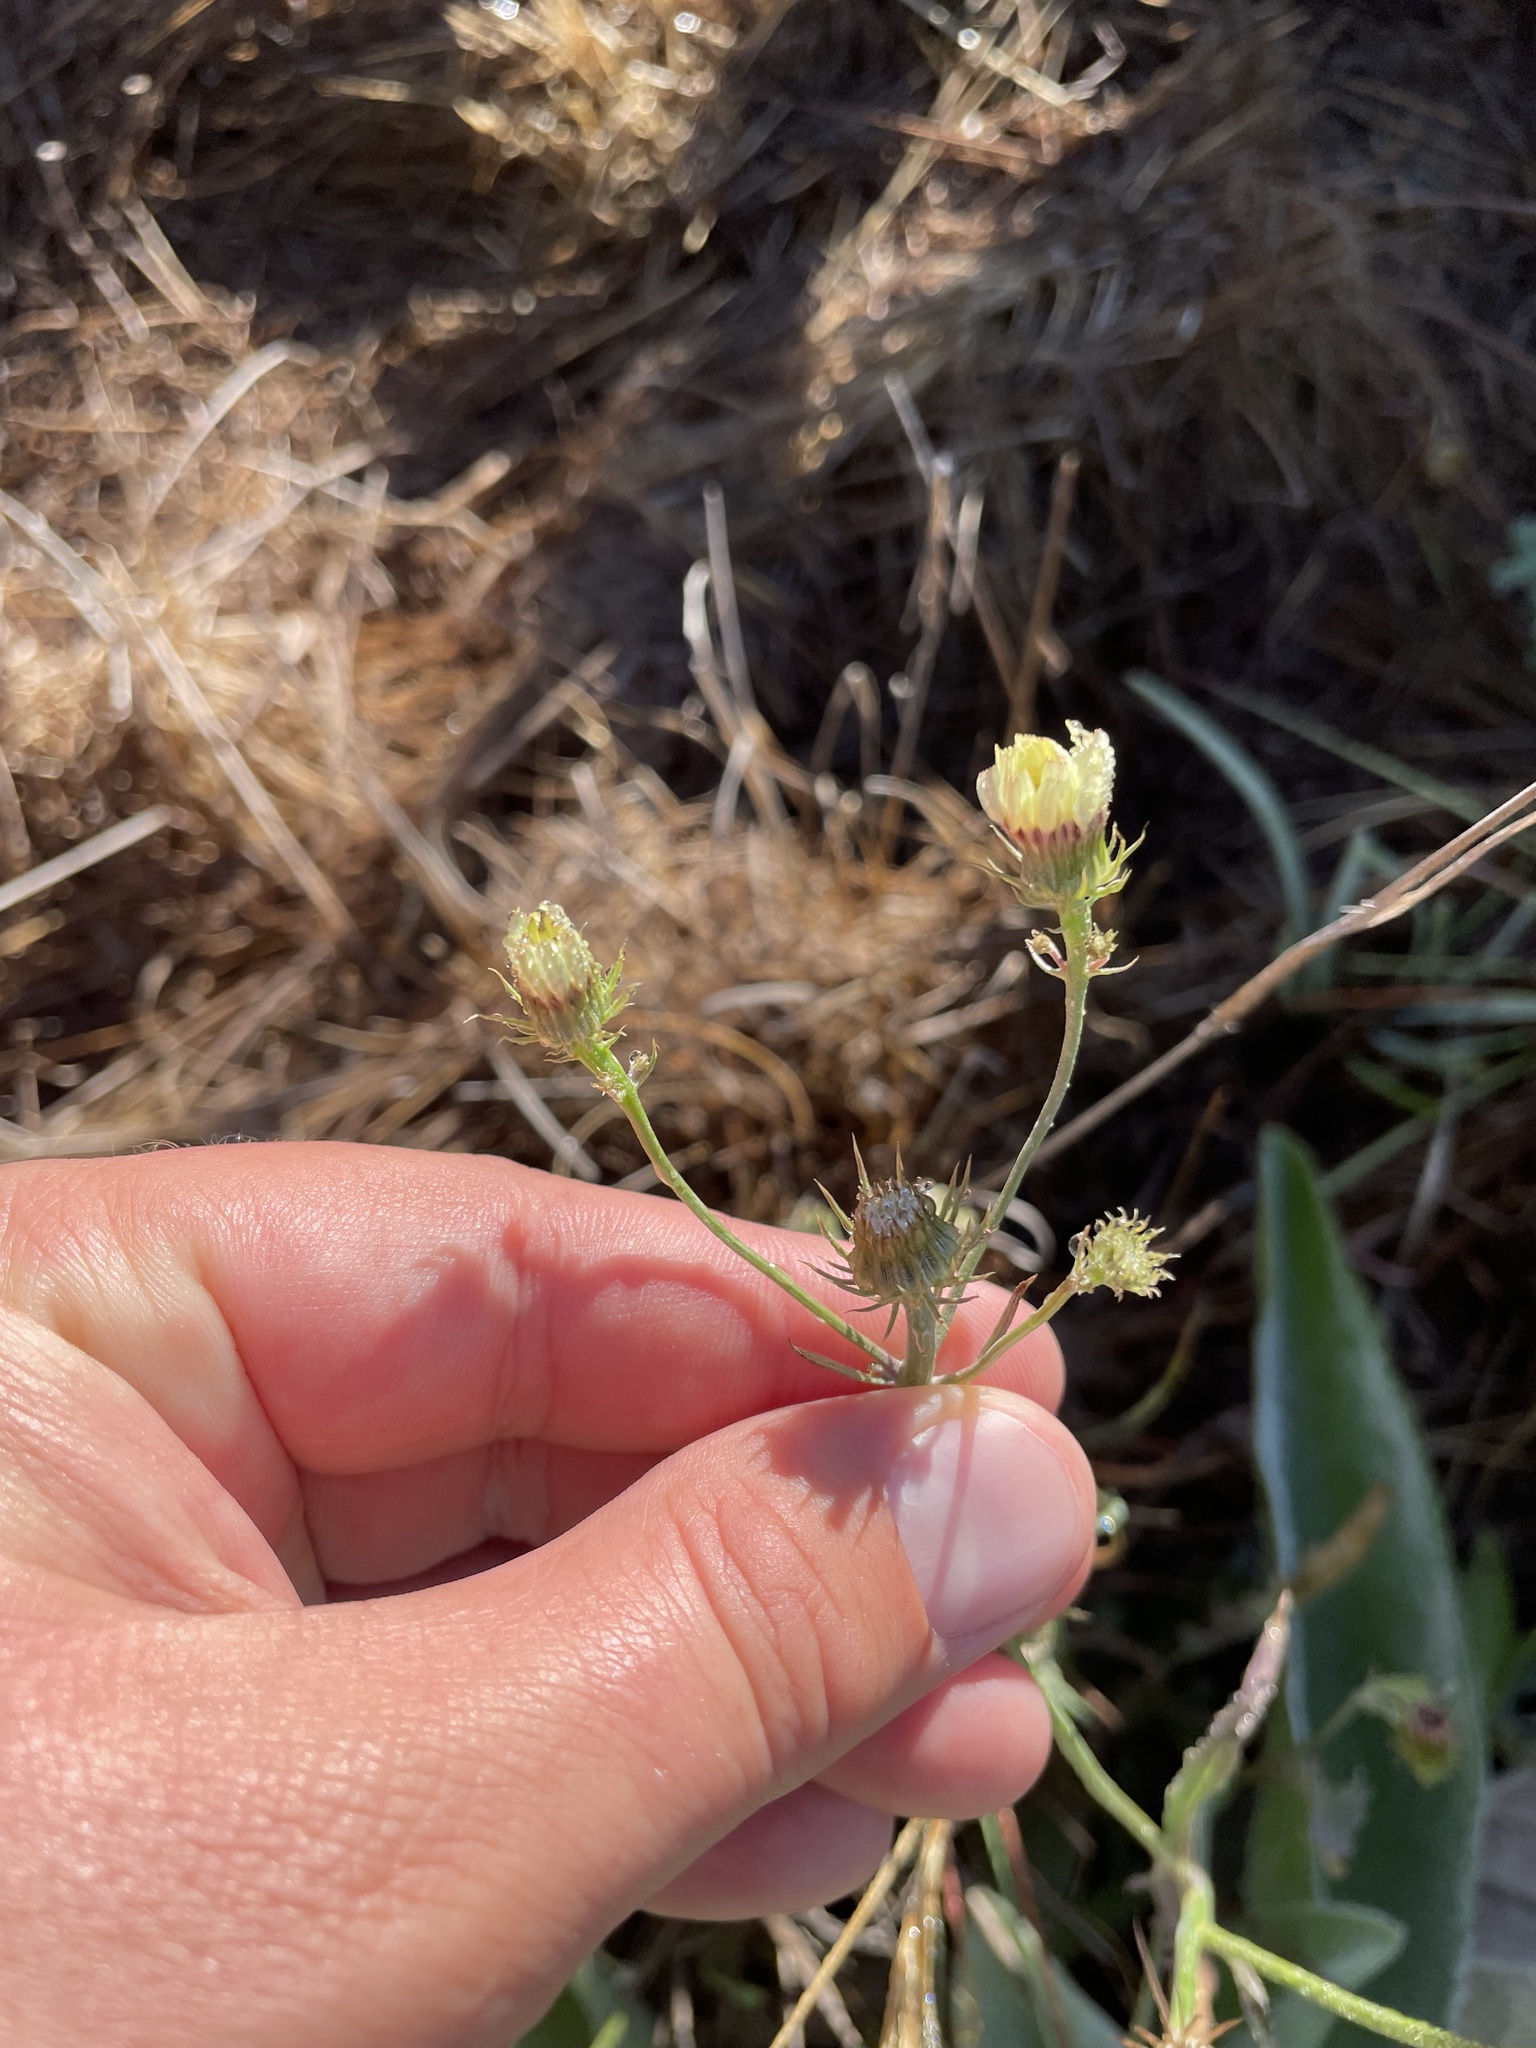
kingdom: Plantae
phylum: Tracheophyta
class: Magnoliopsida
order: Asterales
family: Asteraceae
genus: Tolpis
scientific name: Tolpis barbata
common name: Yellow hawkweed
